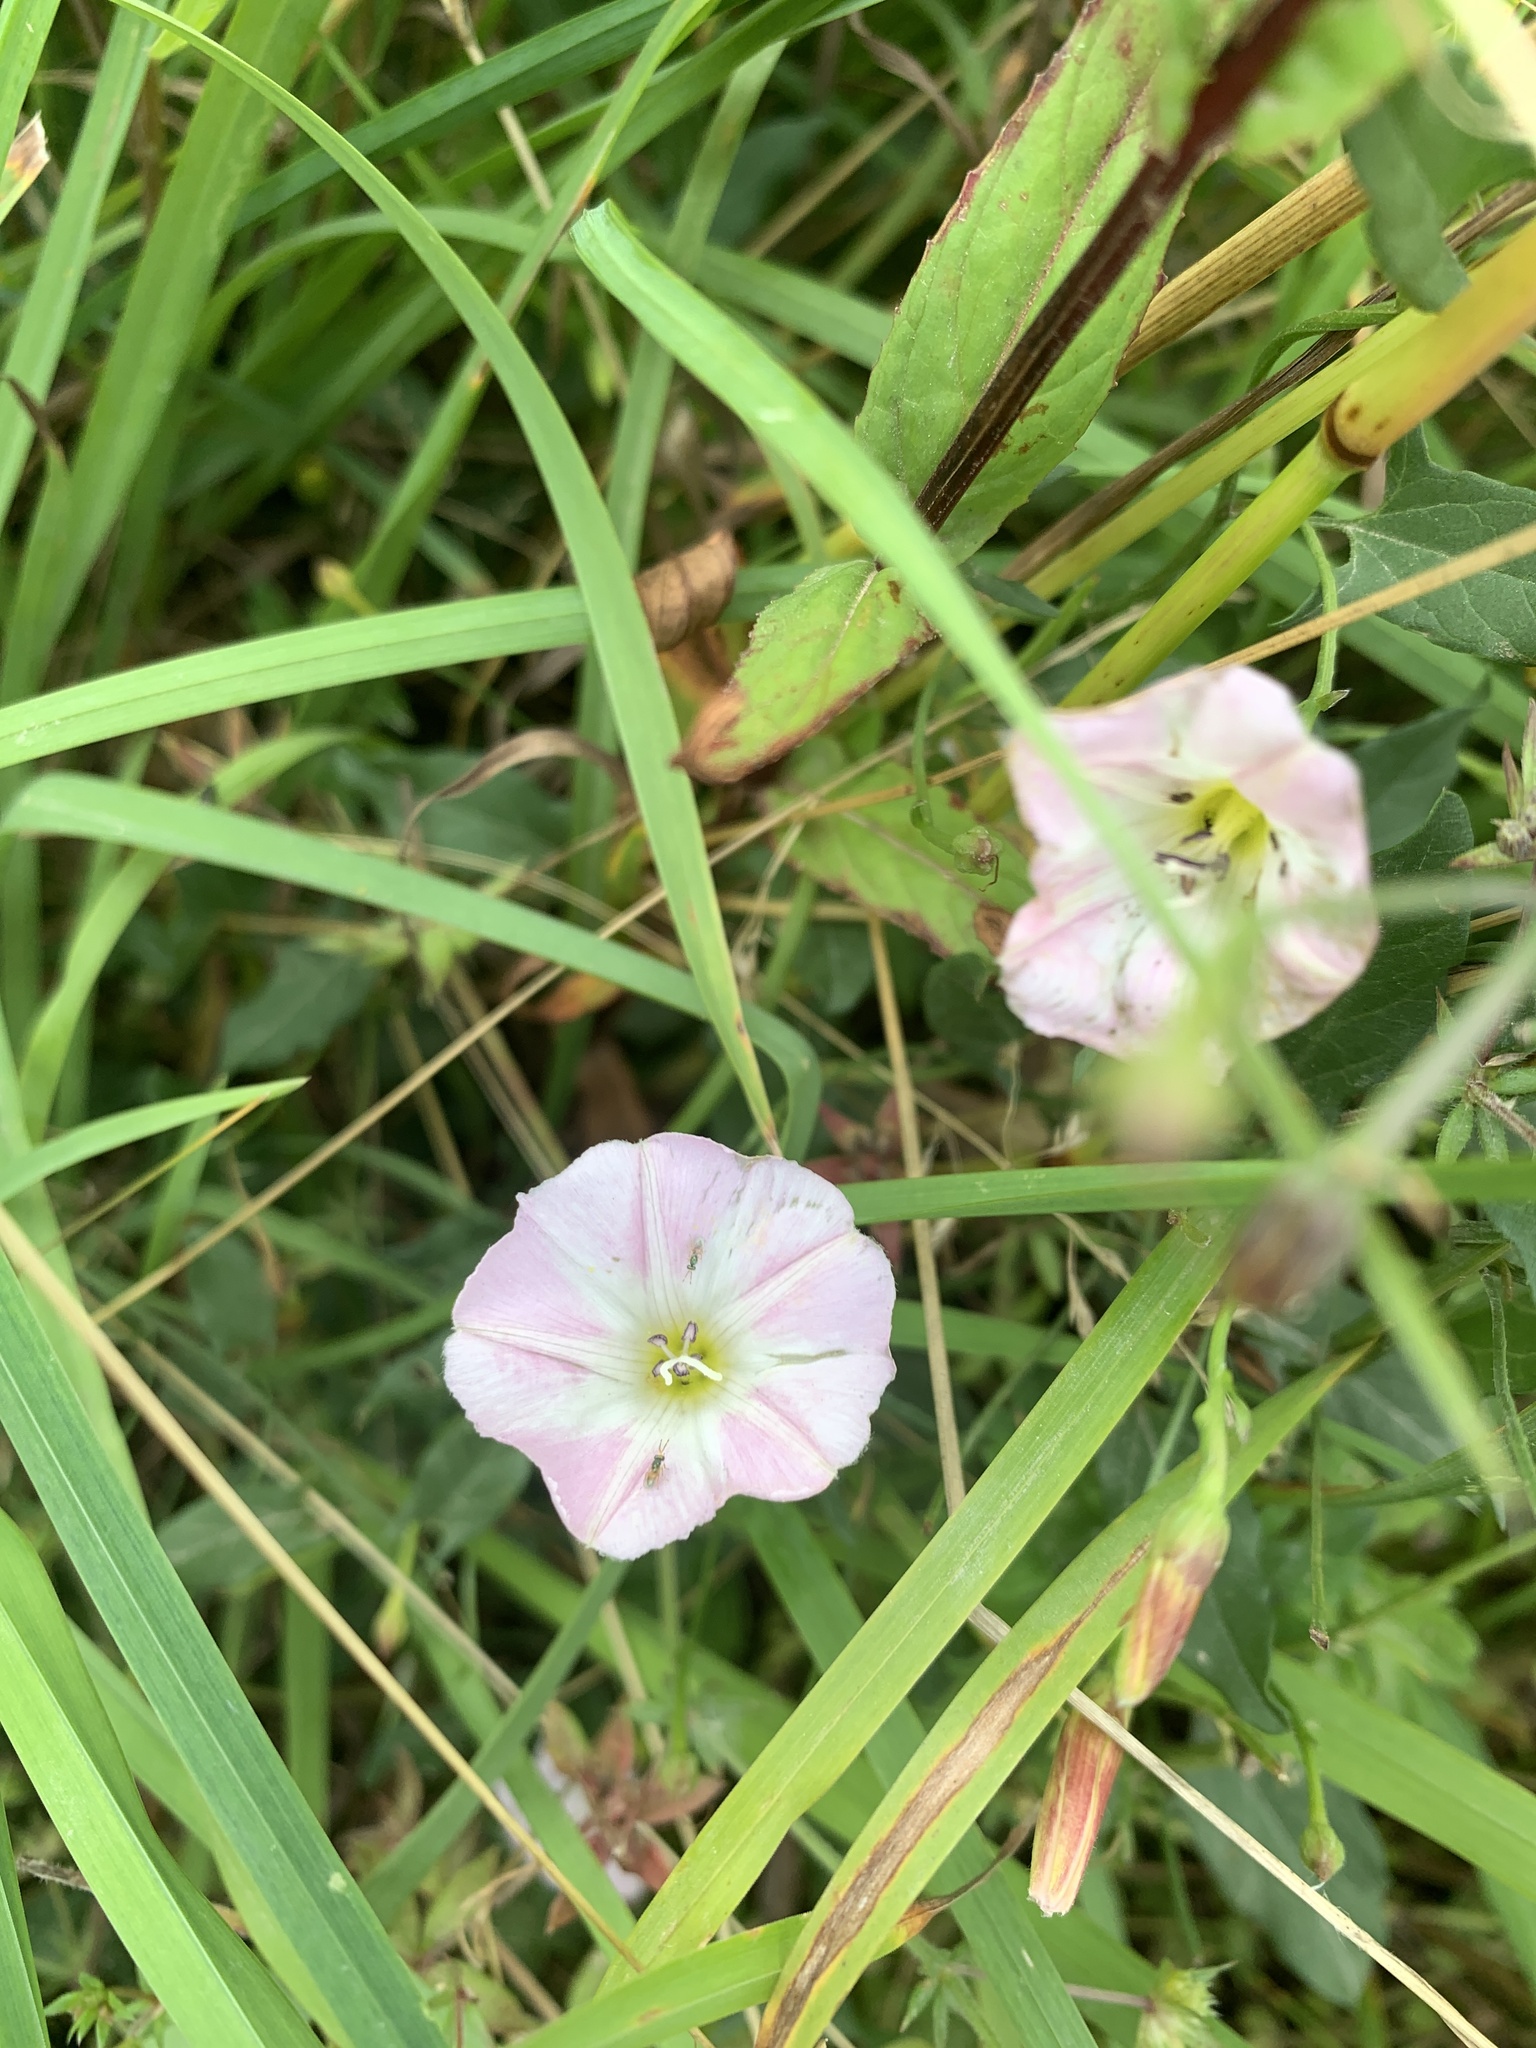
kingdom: Plantae
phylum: Tracheophyta
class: Magnoliopsida
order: Solanales
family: Convolvulaceae
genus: Convolvulus
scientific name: Convolvulus arvensis
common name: Field bindweed
